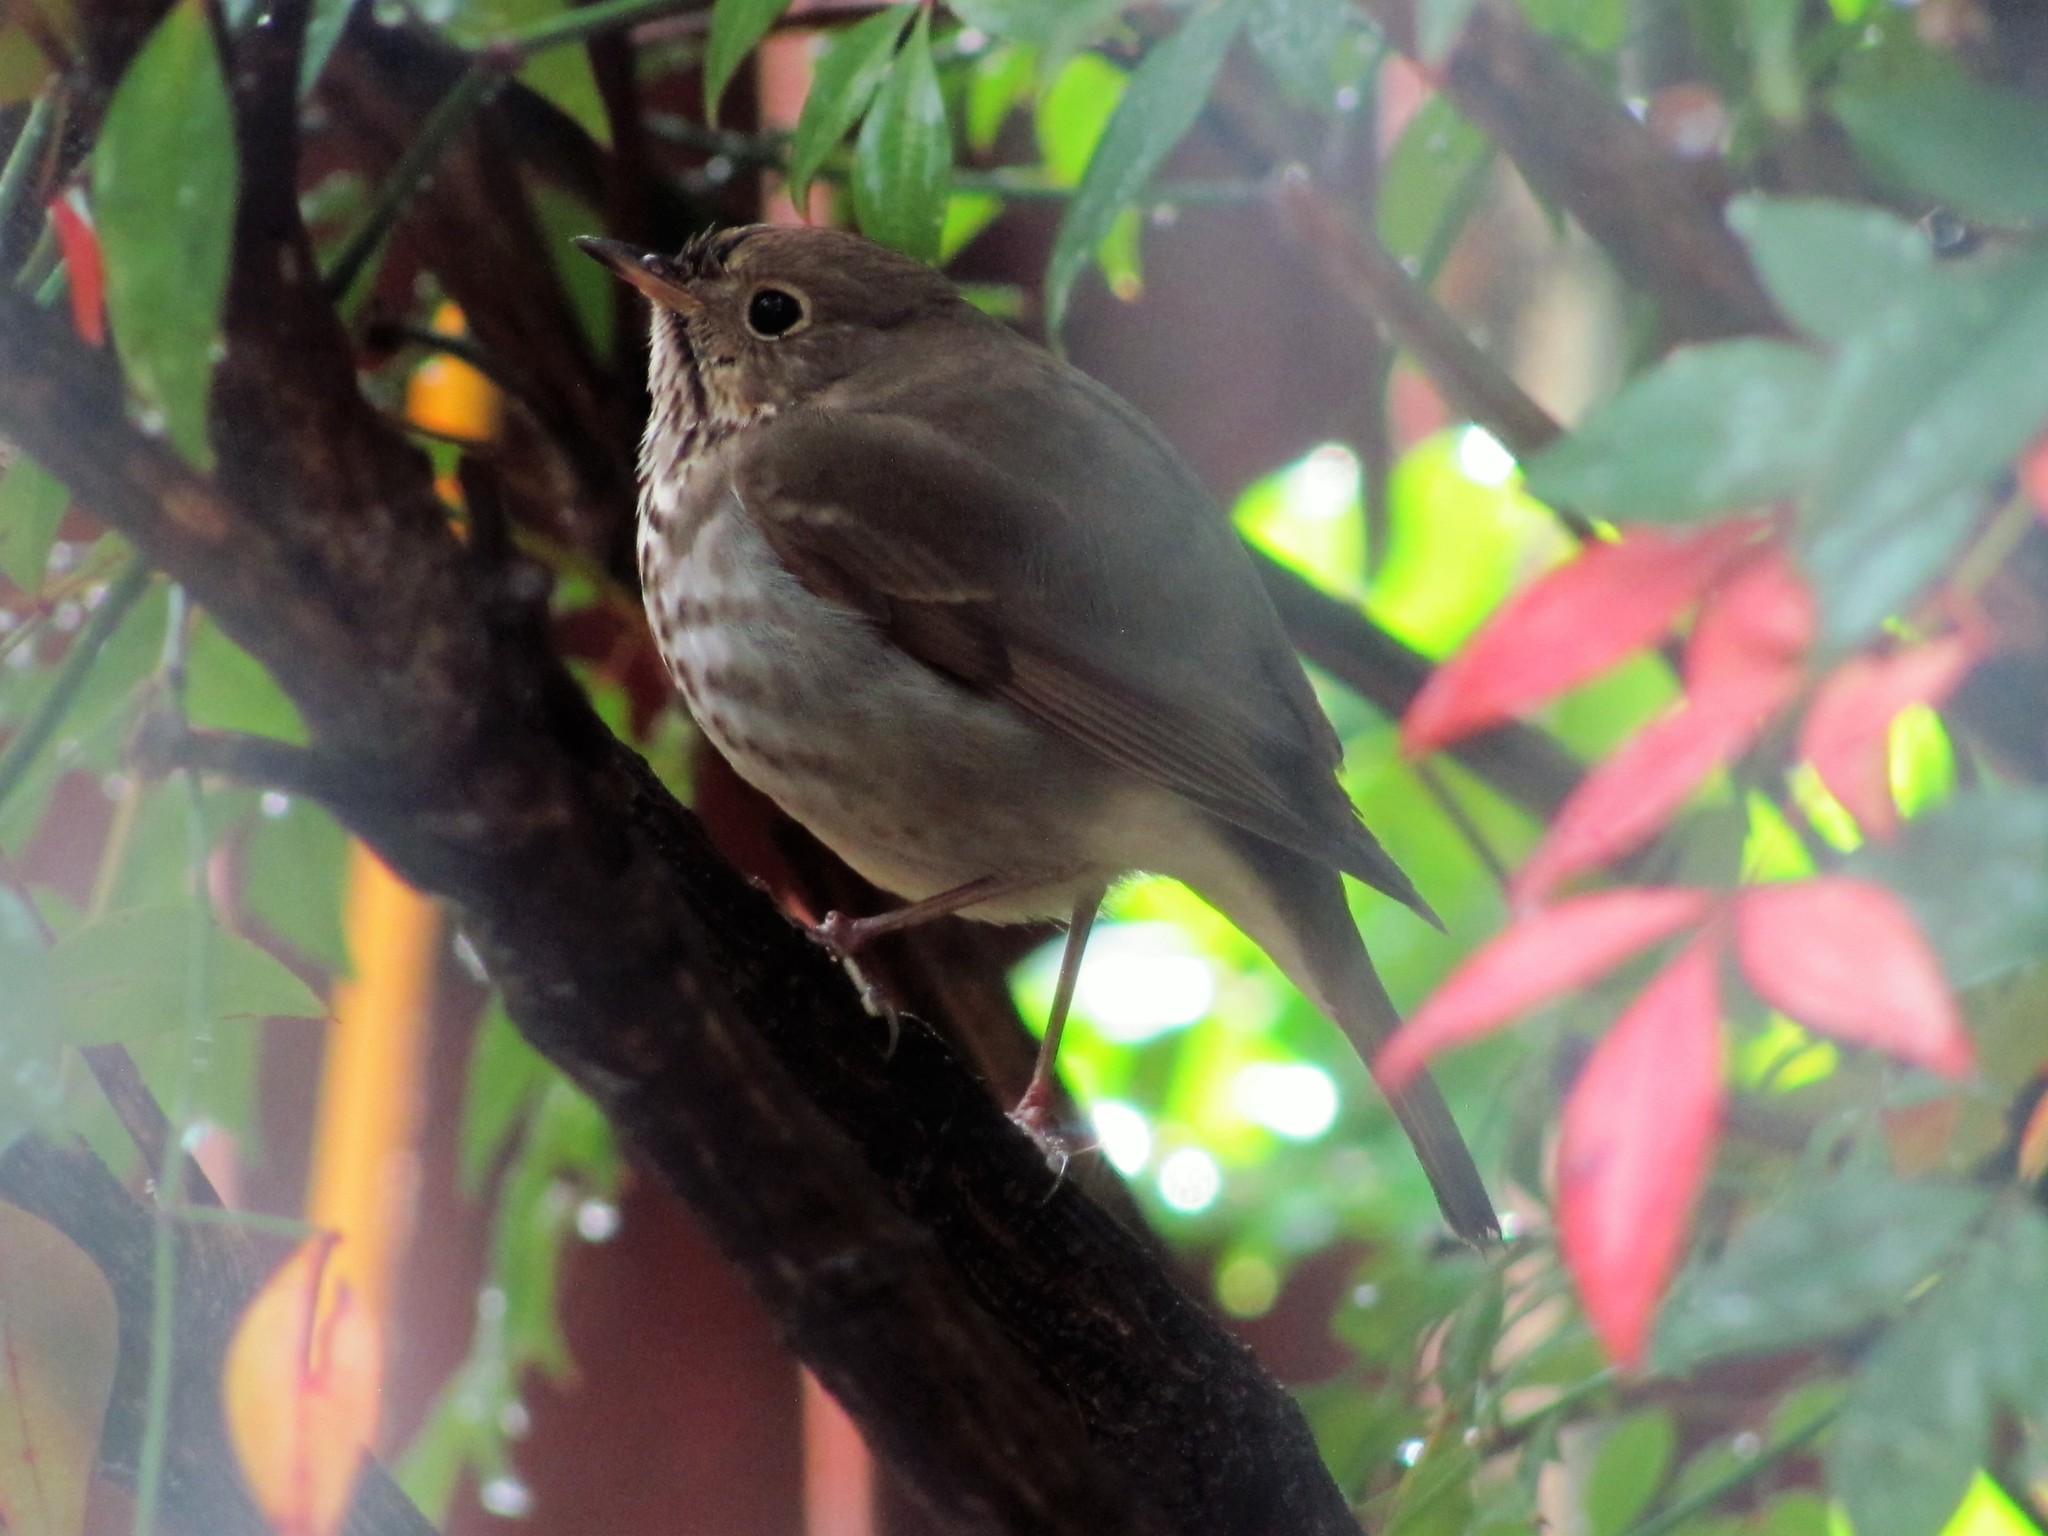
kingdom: Animalia
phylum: Chordata
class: Aves
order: Passeriformes
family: Turdidae
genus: Catharus
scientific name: Catharus guttatus
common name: Hermit thrush
